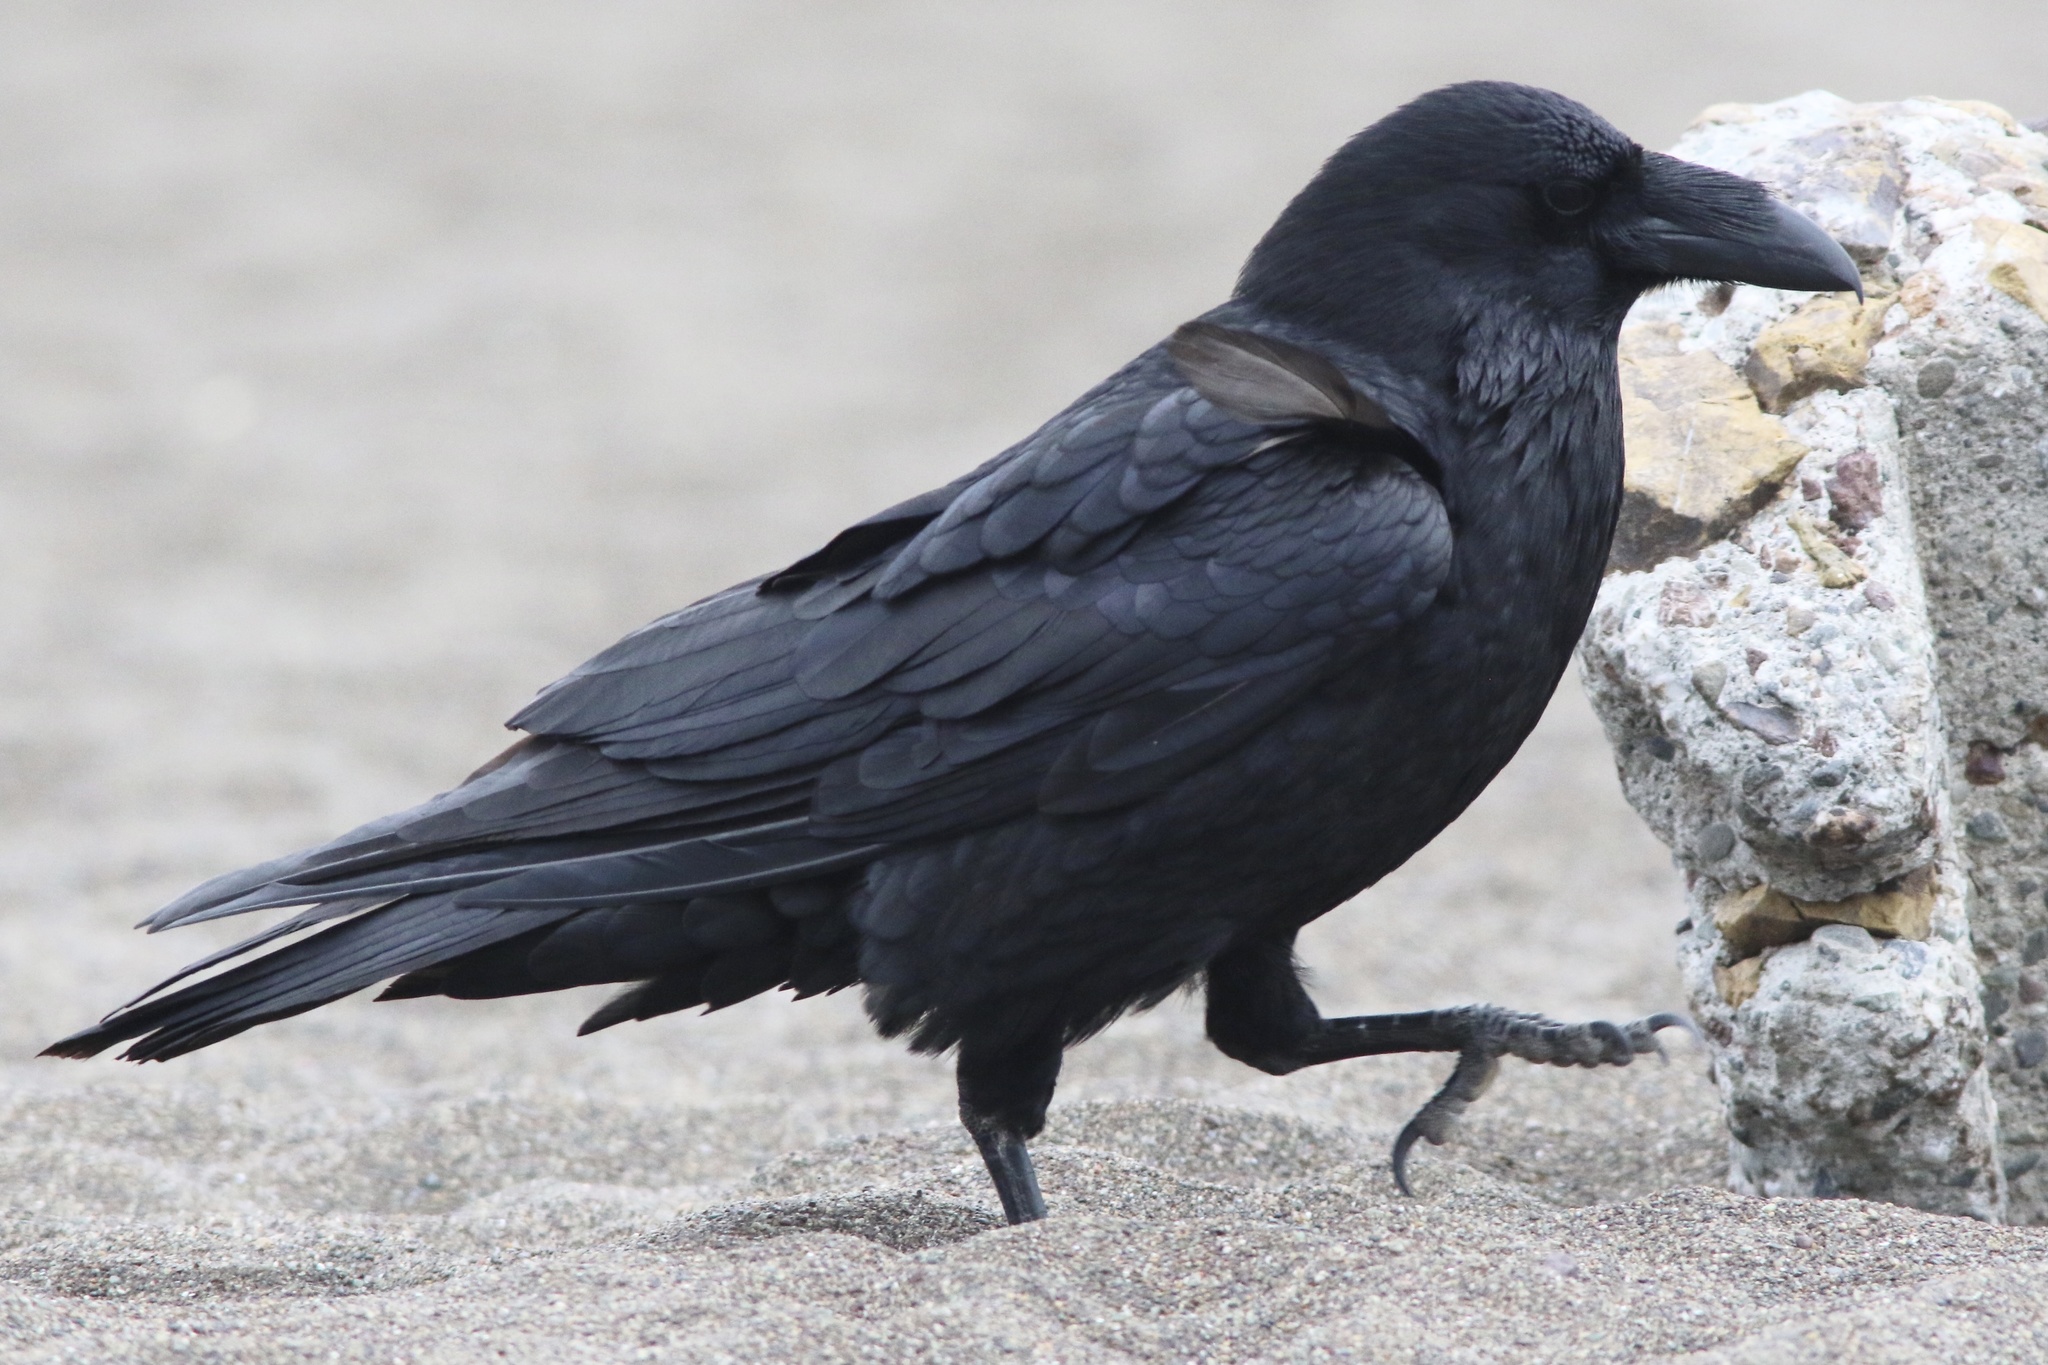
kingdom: Animalia
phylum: Chordata
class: Aves
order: Passeriformes
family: Corvidae
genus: Corvus
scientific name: Corvus corax
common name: Common raven
